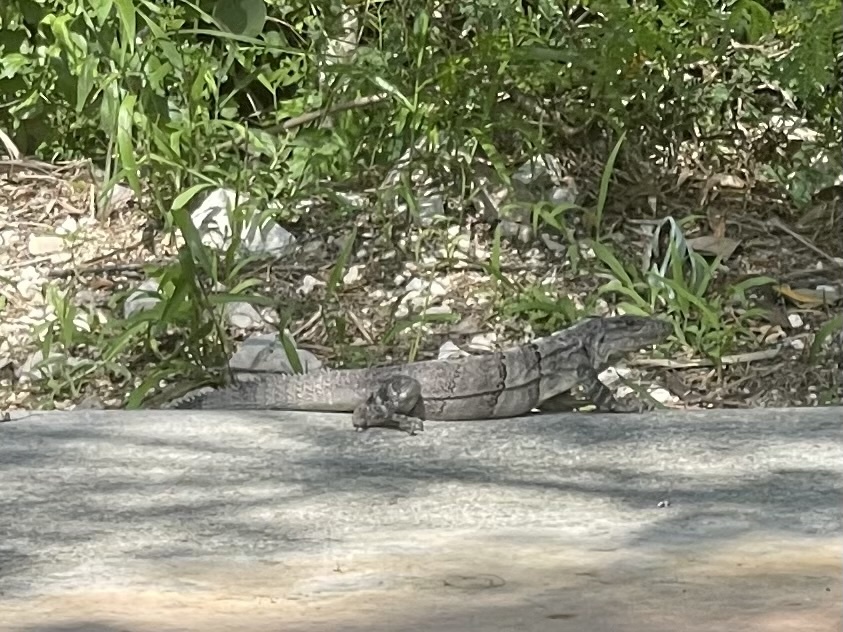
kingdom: Animalia
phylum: Chordata
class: Squamata
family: Iguanidae
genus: Ctenosaura
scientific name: Ctenosaura similis
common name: Black spiny-tailed iguana
